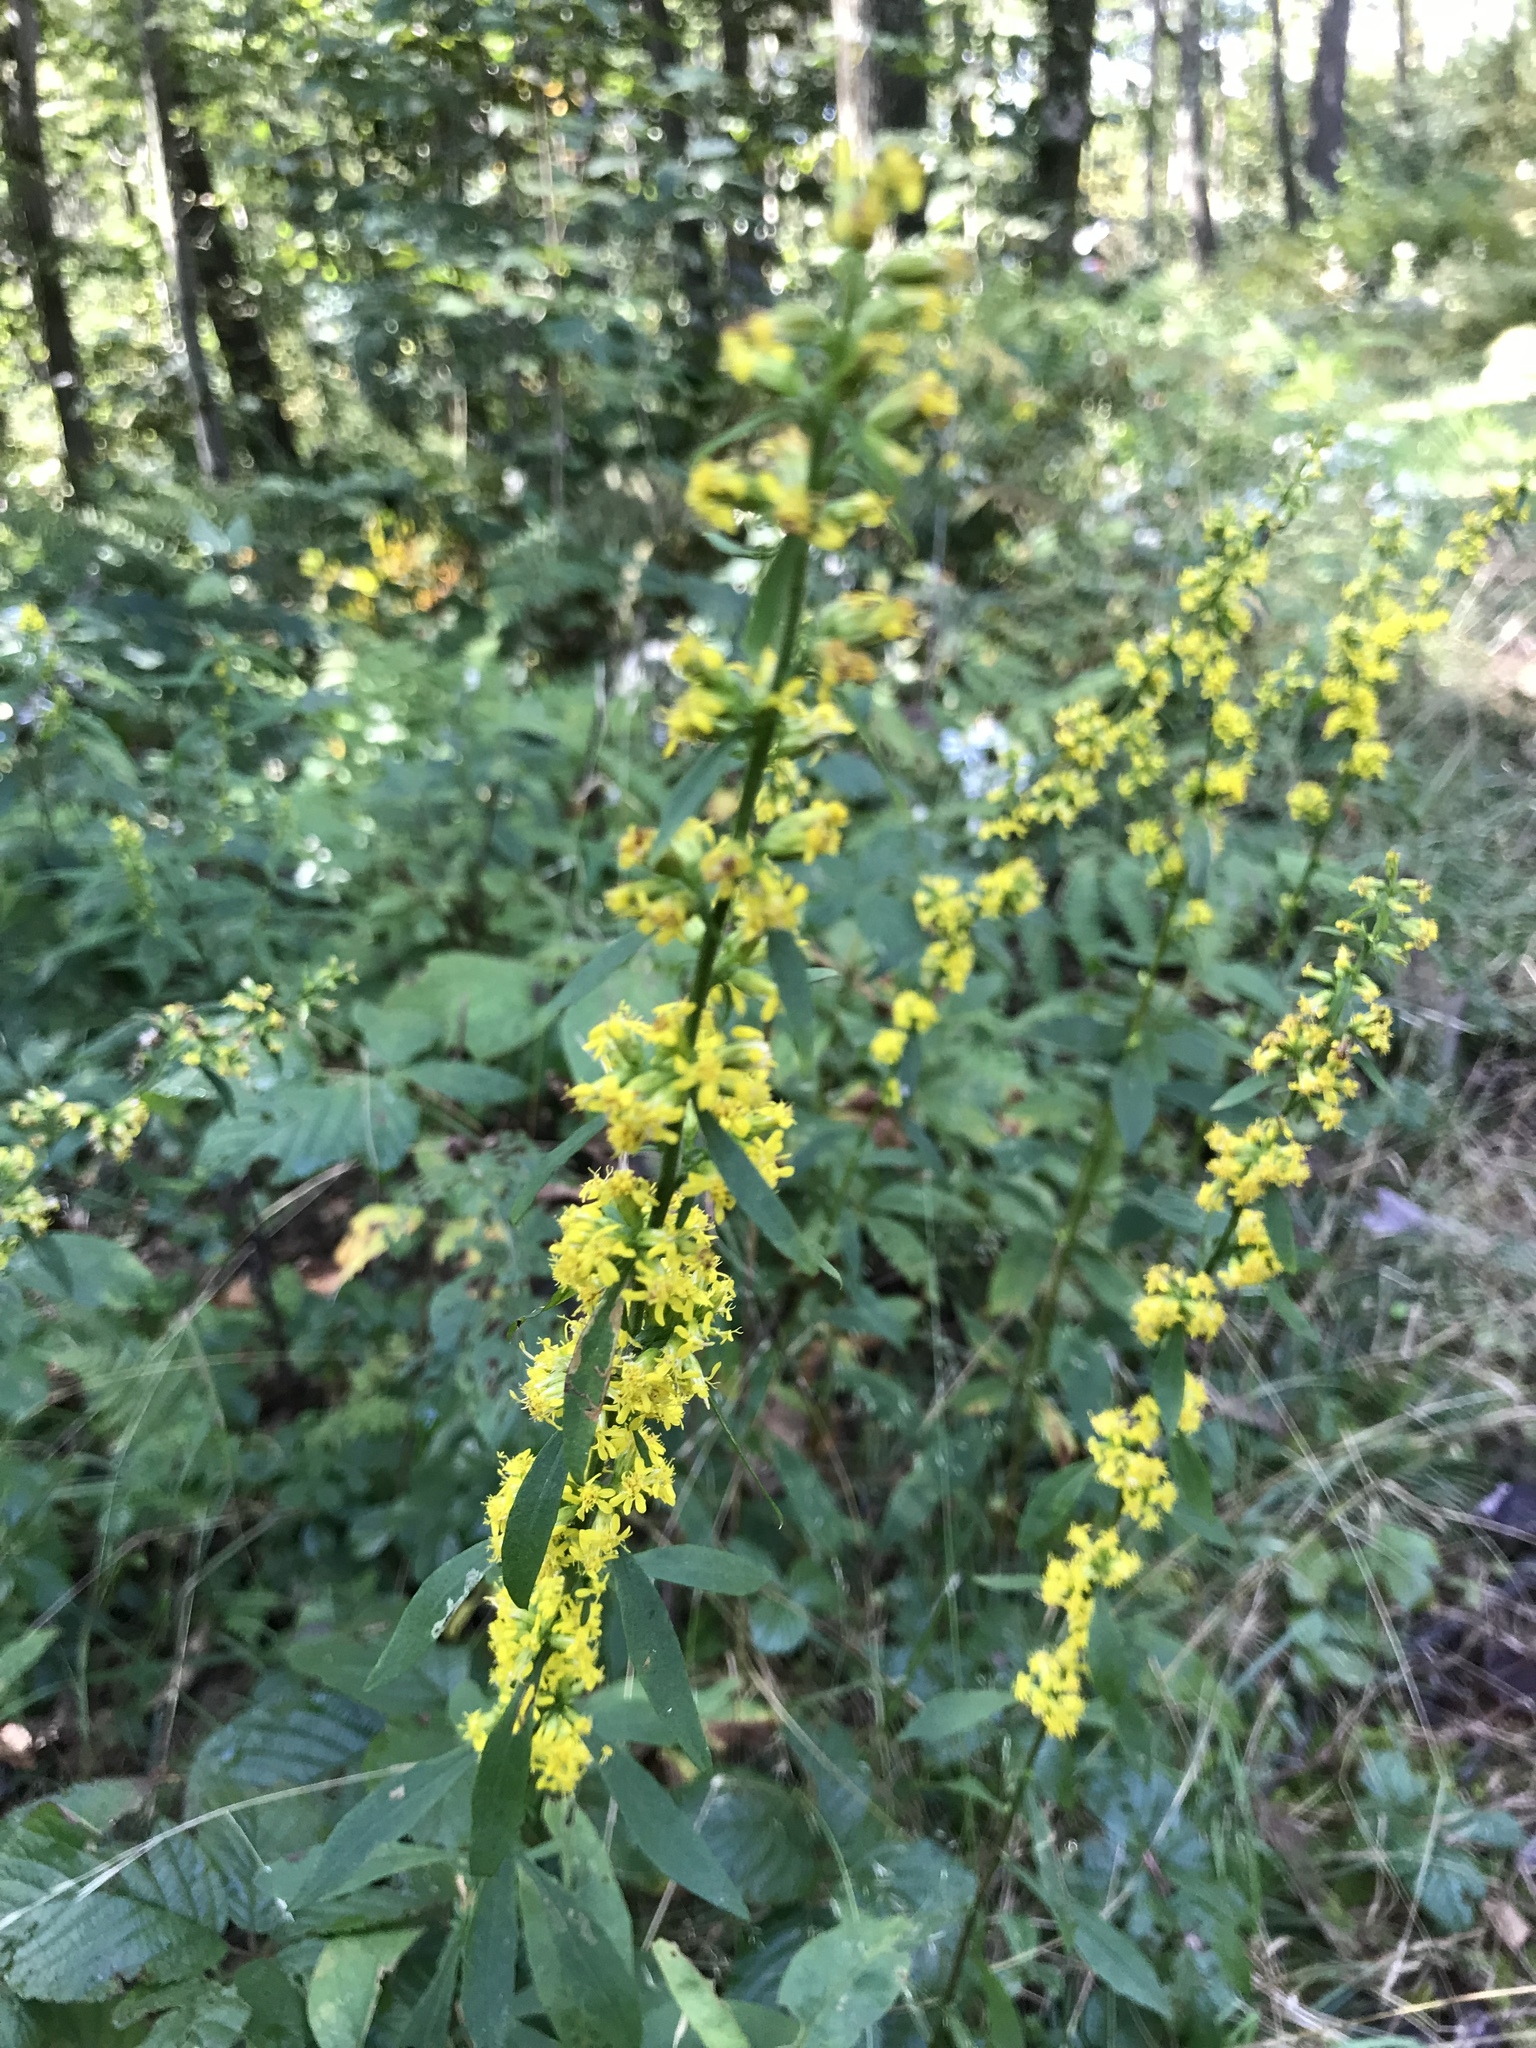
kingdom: Plantae
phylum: Tracheophyta
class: Magnoliopsida
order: Asterales
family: Asteraceae
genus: Solidago
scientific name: Solidago curtisii
